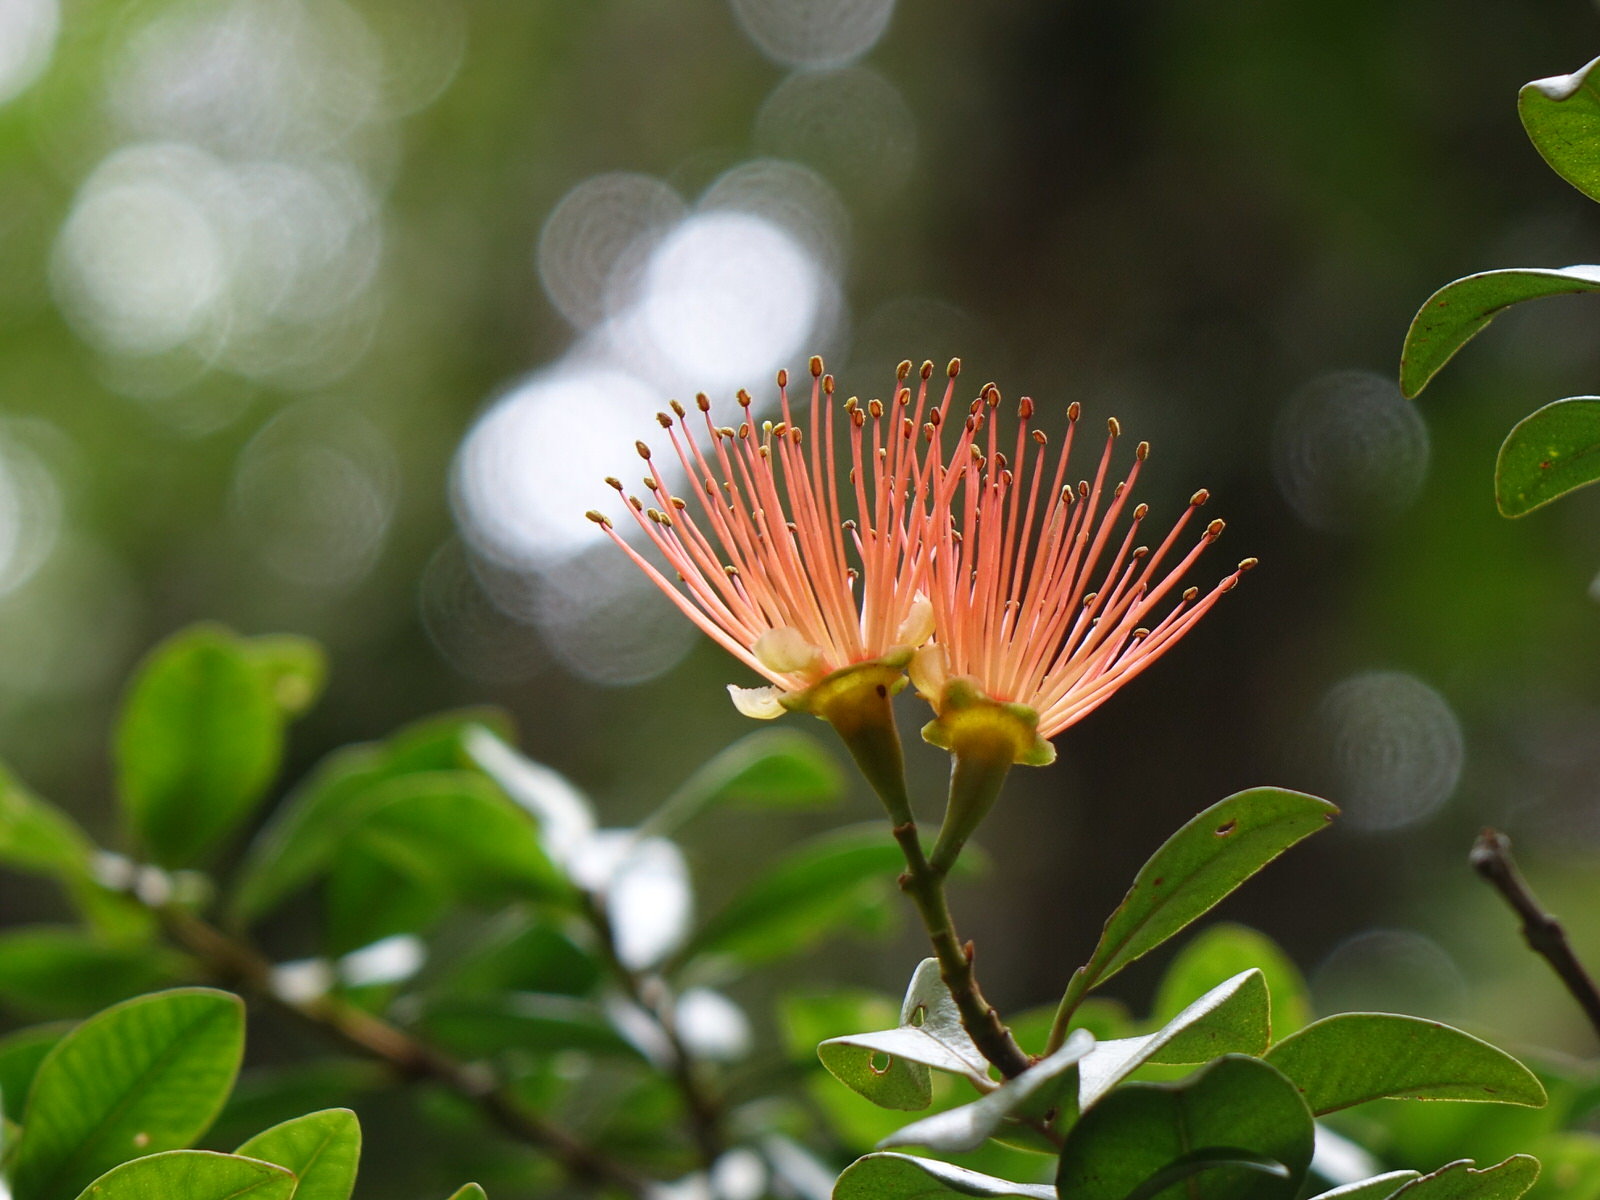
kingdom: Plantae
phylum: Tracheophyta
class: Magnoliopsida
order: Myrtales
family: Myrtaceae
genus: Metrosideros
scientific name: Metrosideros fulgens
